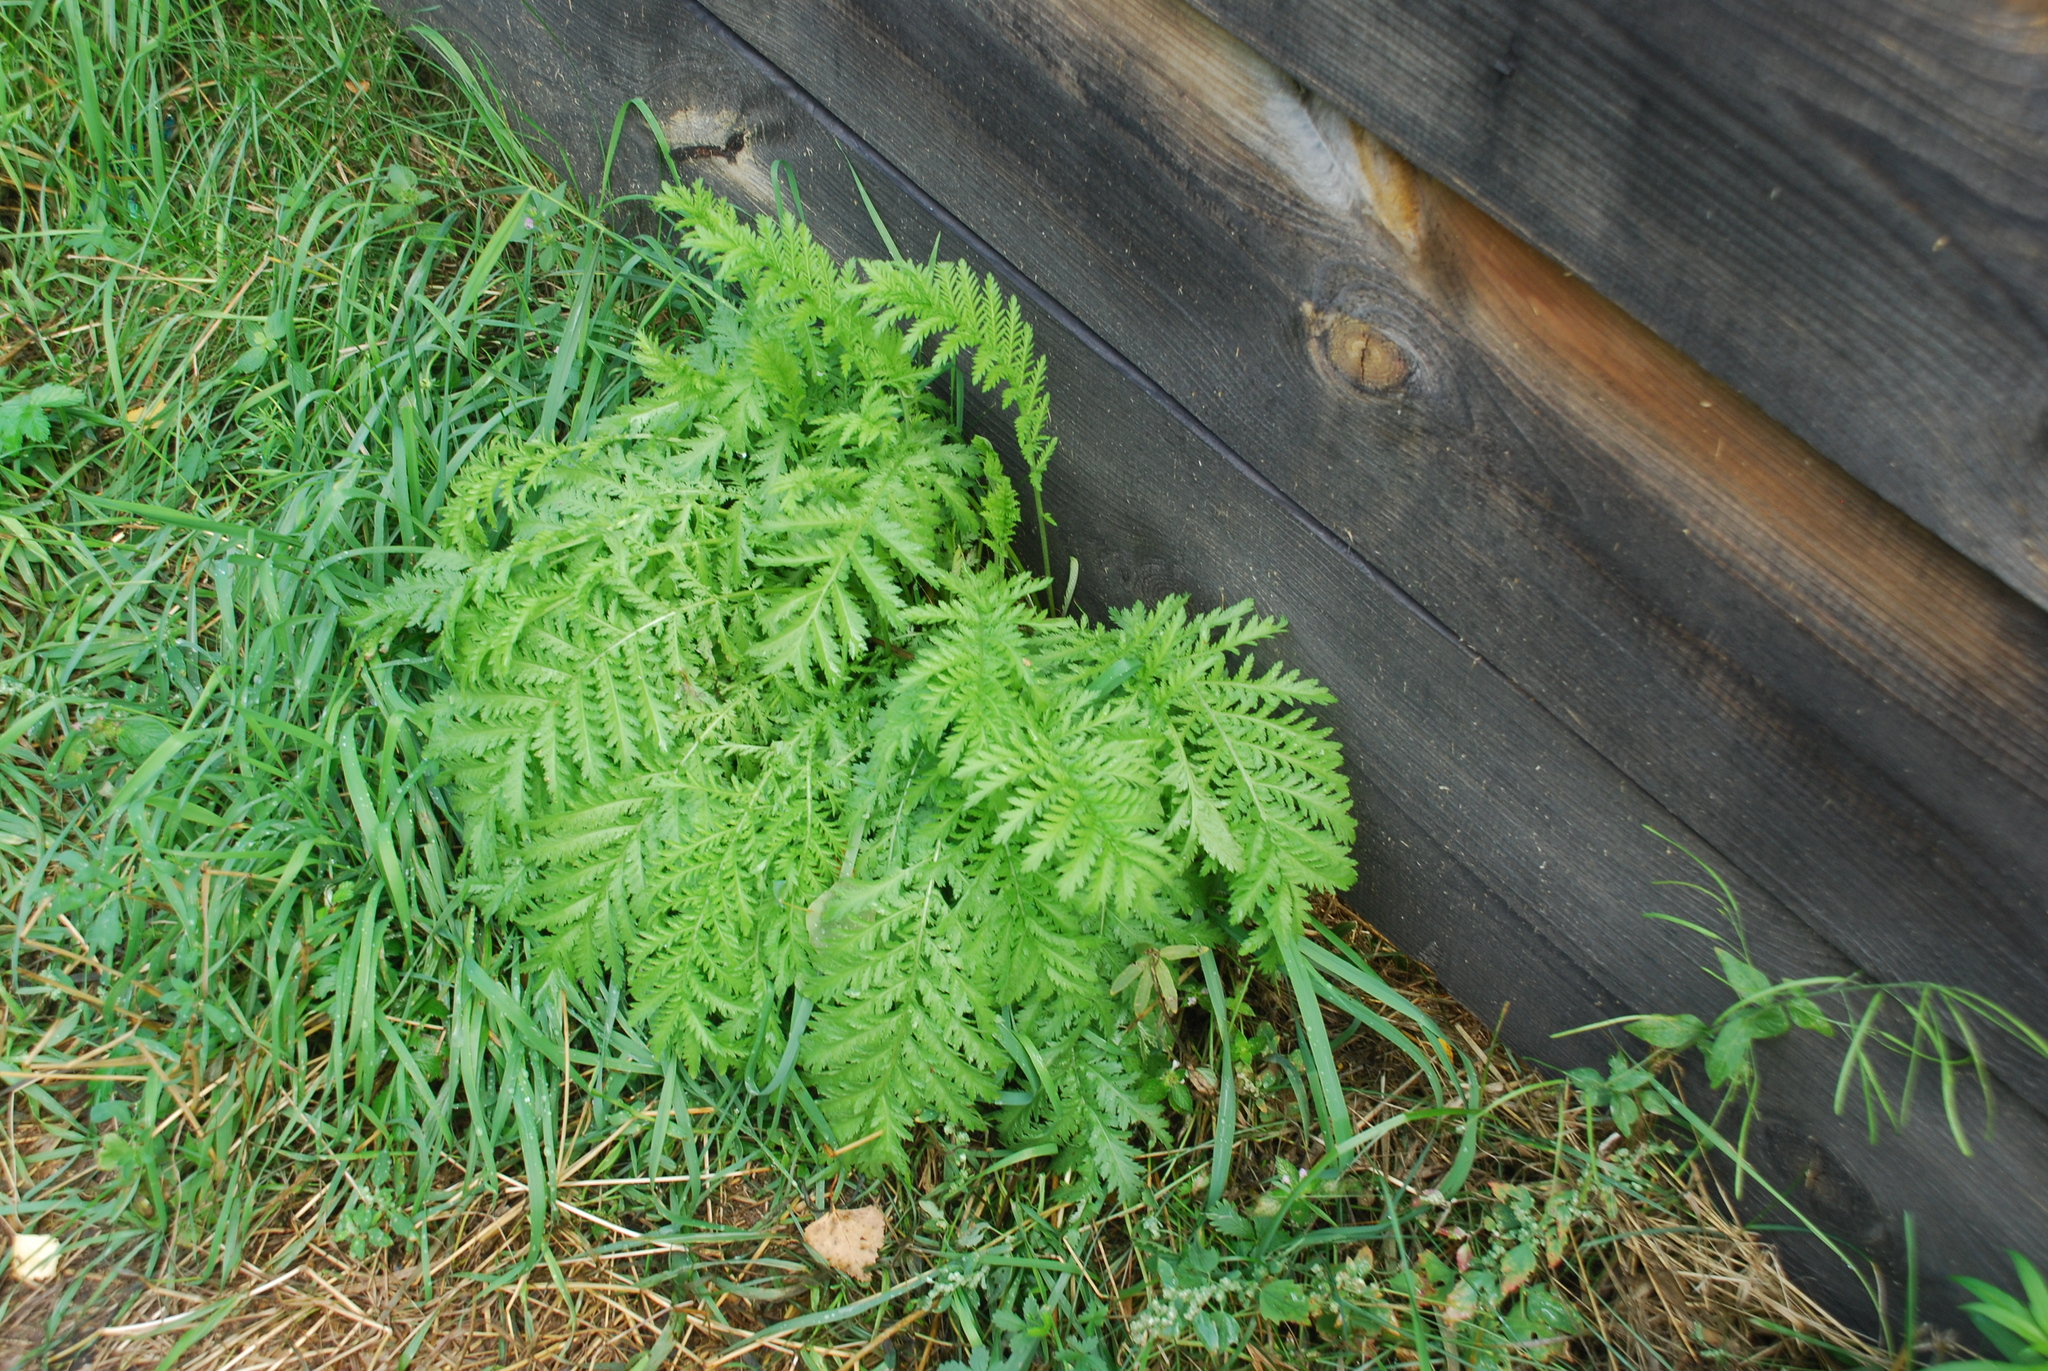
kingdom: Plantae
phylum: Tracheophyta
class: Magnoliopsida
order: Asterales
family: Asteraceae
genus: Tanacetum
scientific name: Tanacetum vulgare
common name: Common tansy
